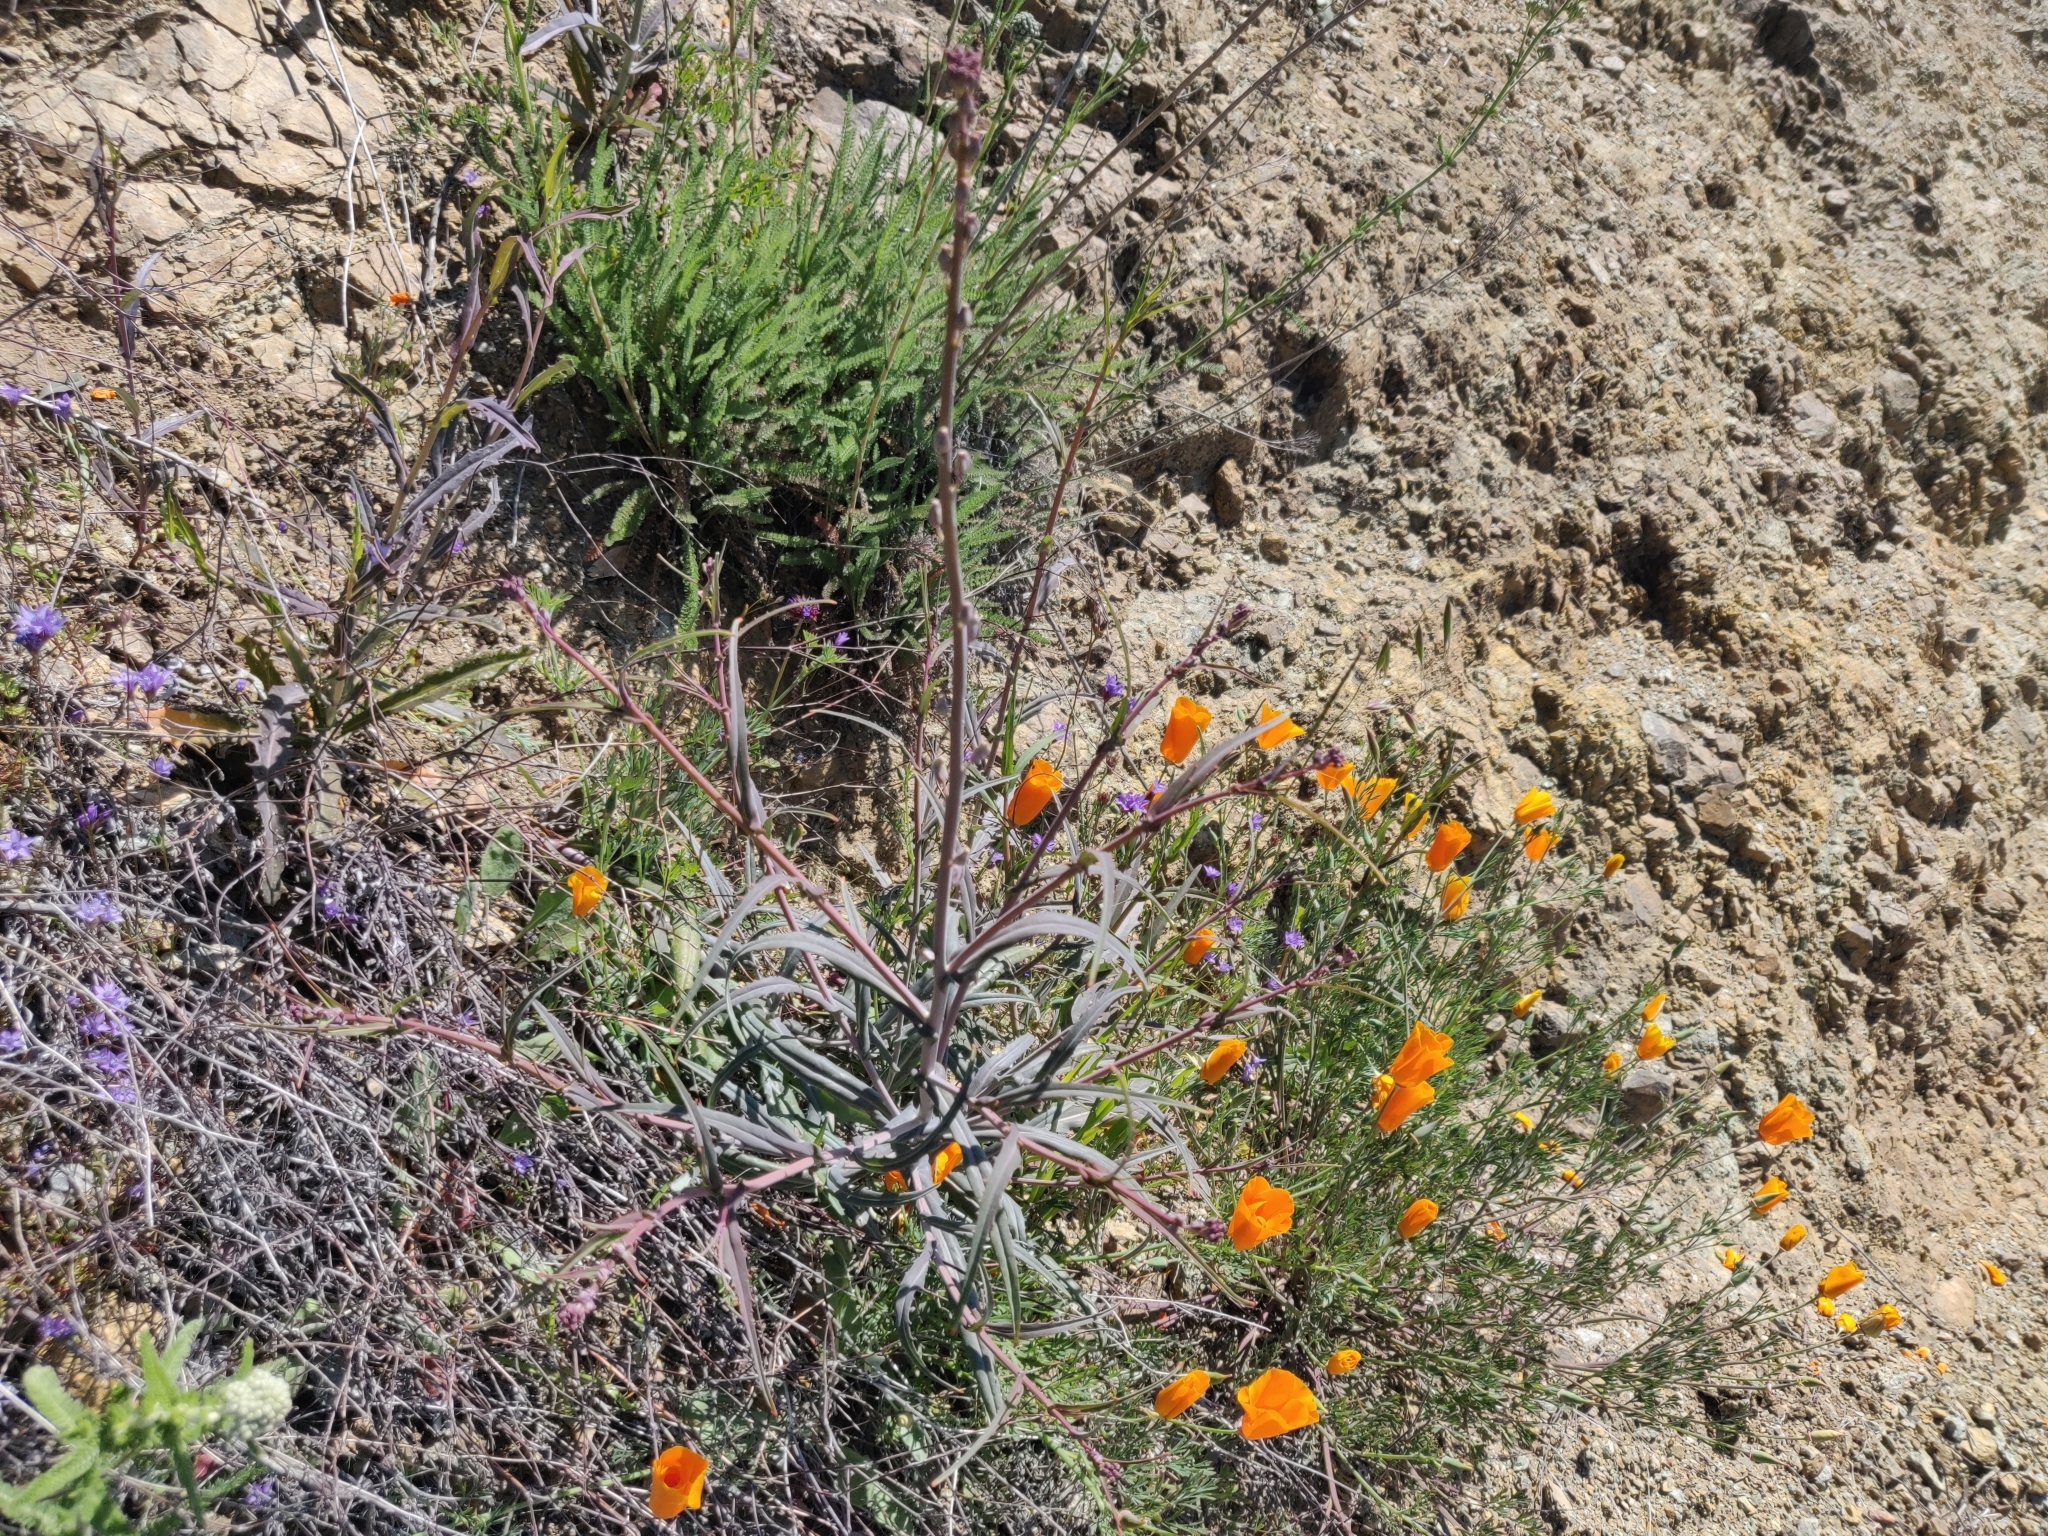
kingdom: Plantae
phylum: Tracheophyta
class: Magnoliopsida
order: Brassicales
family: Brassicaceae
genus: Streptanthus
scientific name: Streptanthus glandulosus
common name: Jewel-flower
